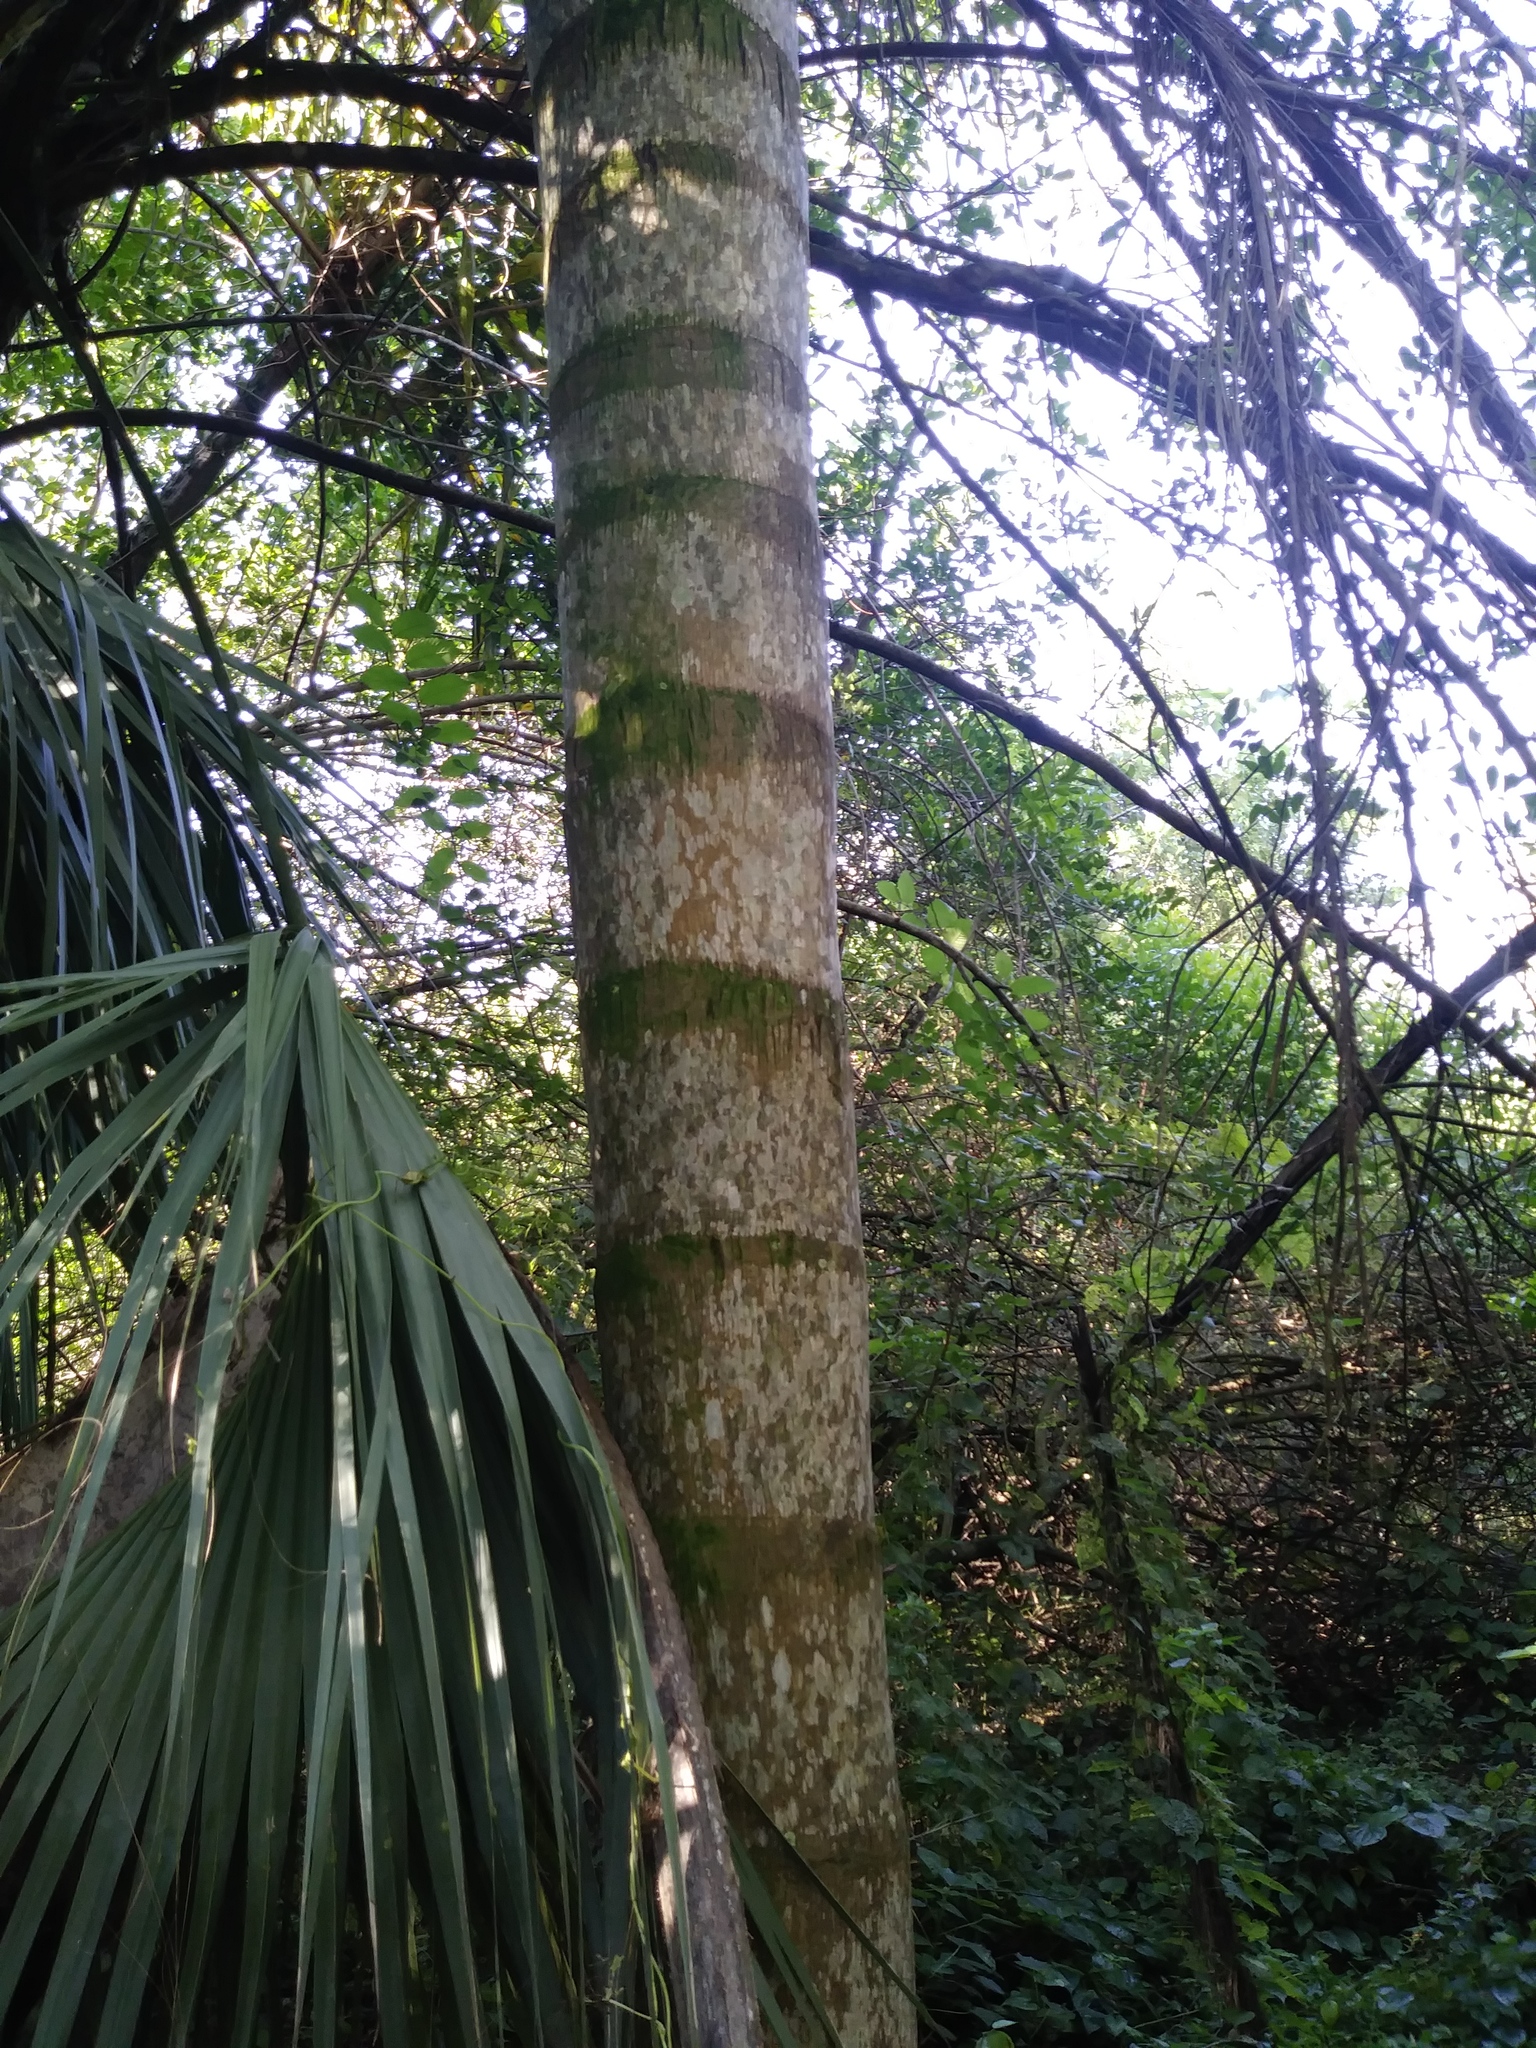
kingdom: Plantae
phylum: Tracheophyta
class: Liliopsida
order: Arecales
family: Arecaceae
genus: Syagrus
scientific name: Syagrus romanzoffiana
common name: Queen palm
